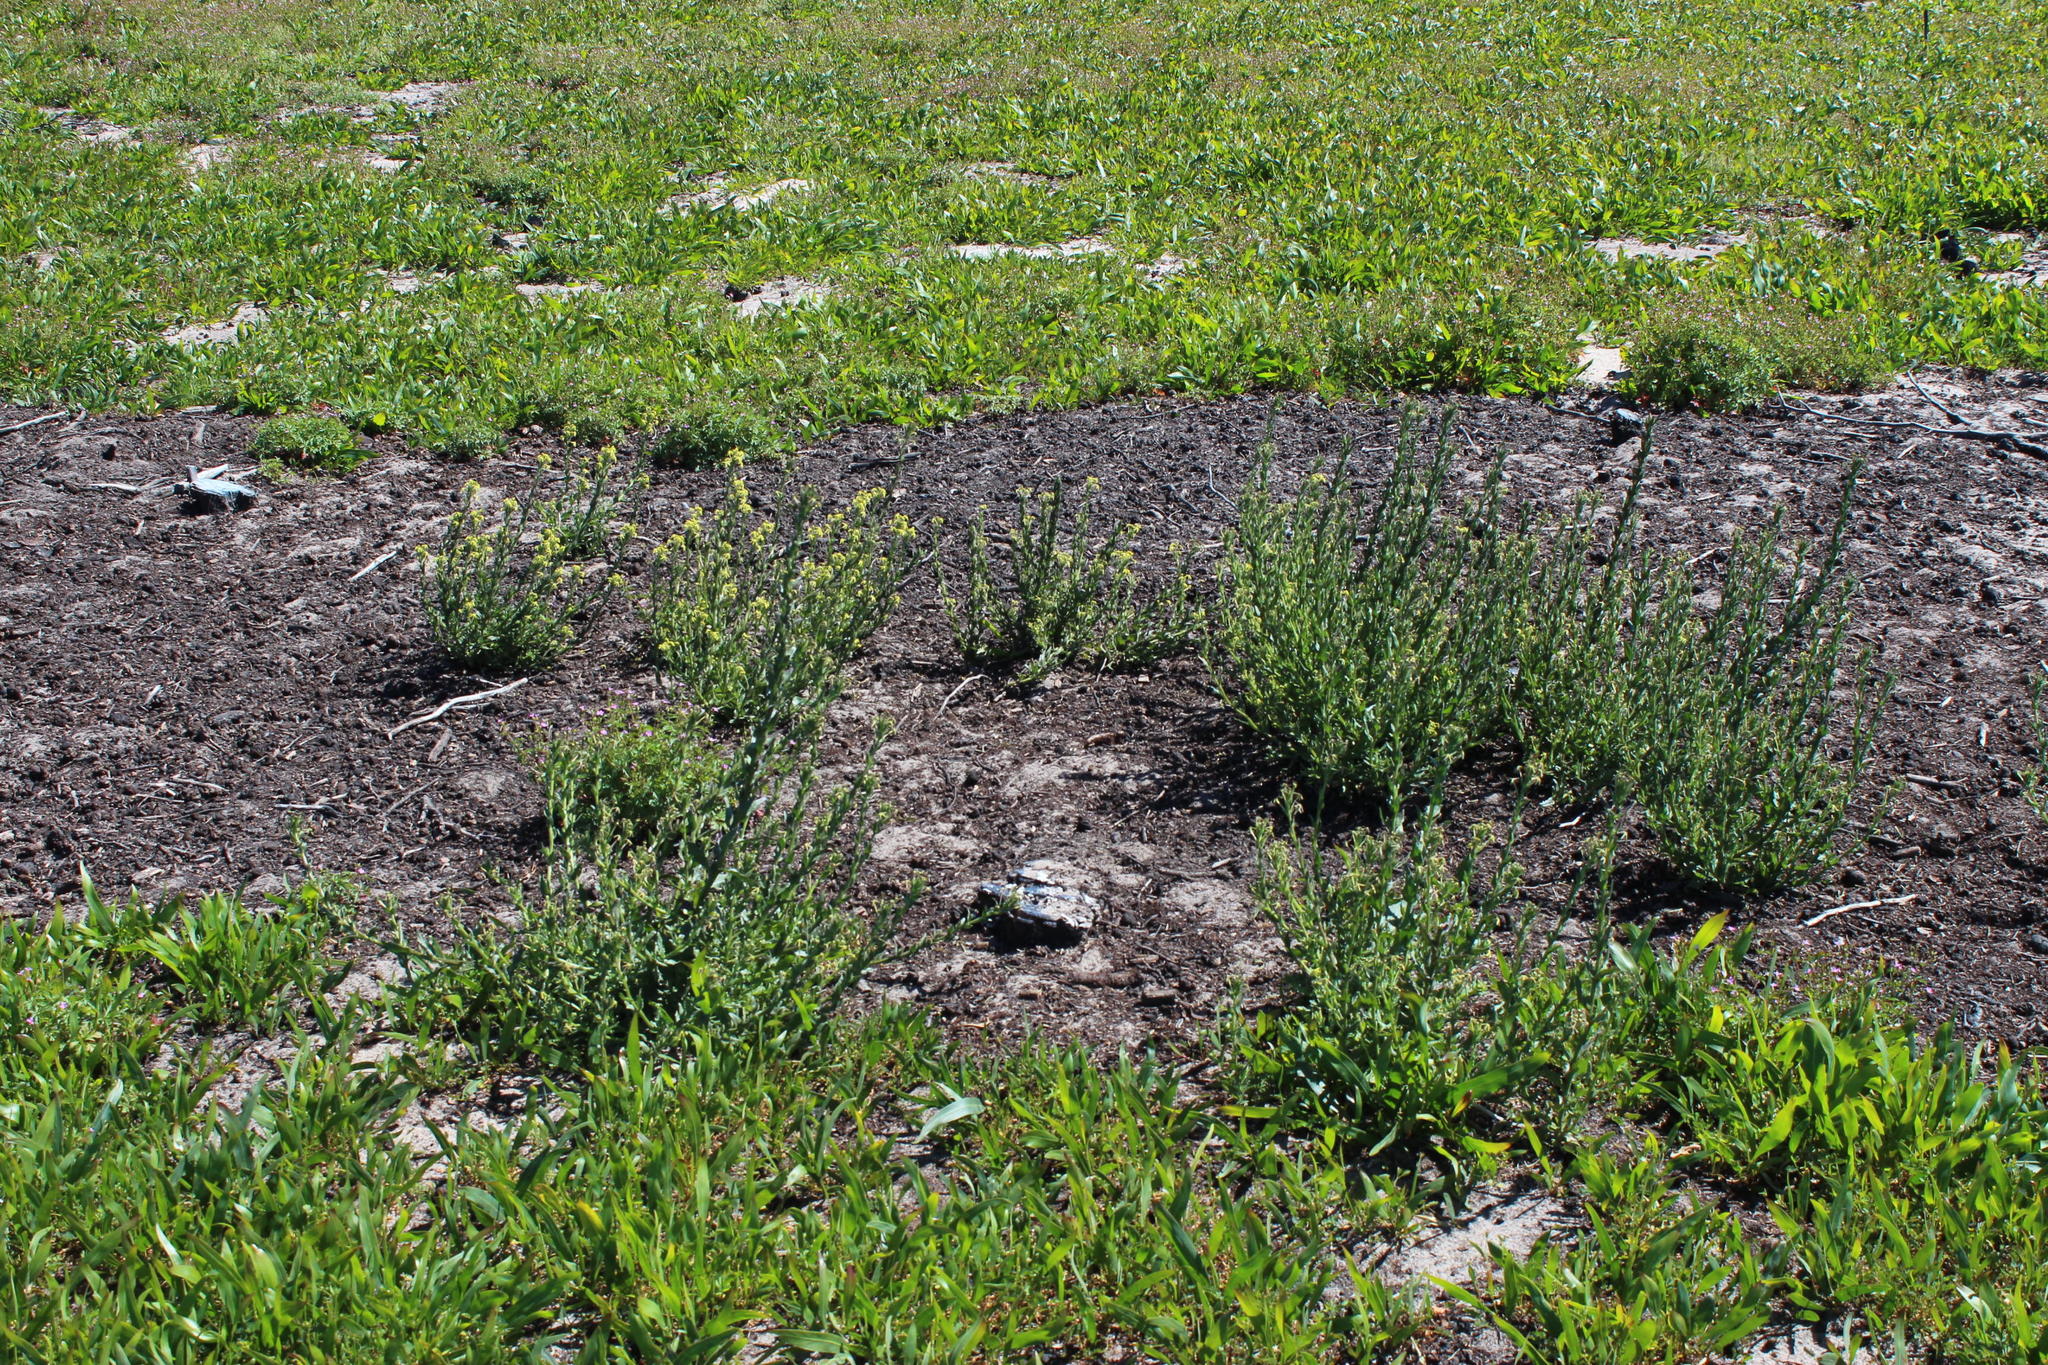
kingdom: Plantae
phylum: Tracheophyta
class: Magnoliopsida
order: Lamiales
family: Scrophulariaceae
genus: Lyperia
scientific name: Lyperia tristis
